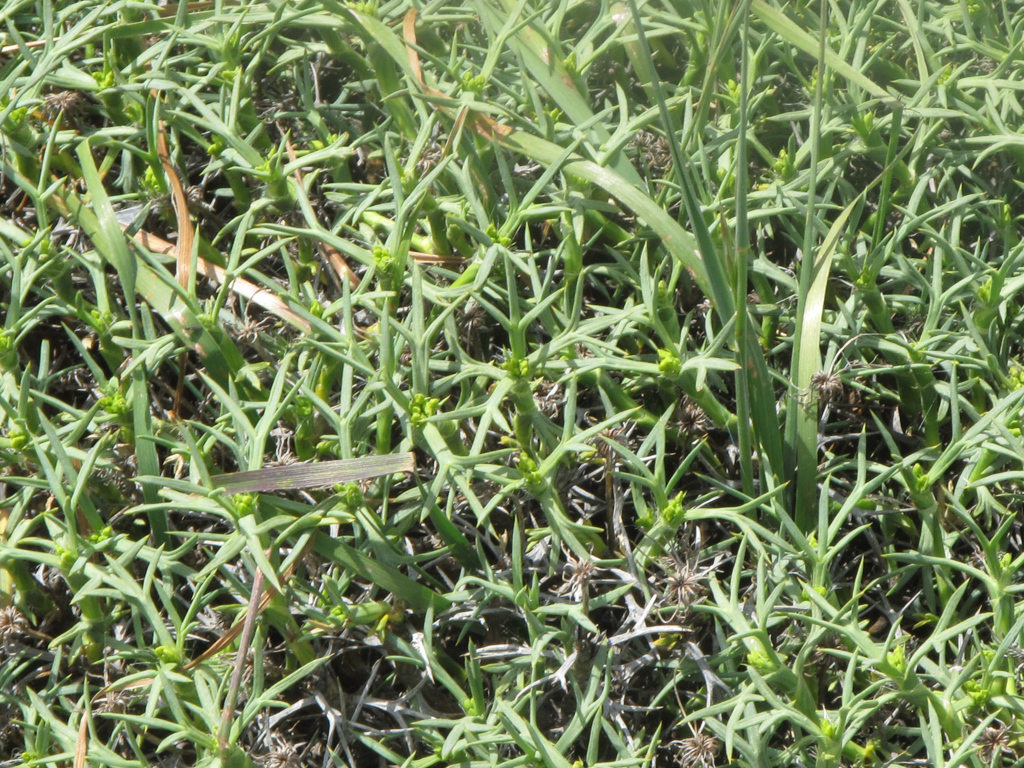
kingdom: Plantae
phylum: Tracheophyta
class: Magnoliopsida
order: Apiales
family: Apiaceae
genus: Azorella
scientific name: Azorella prolifera
